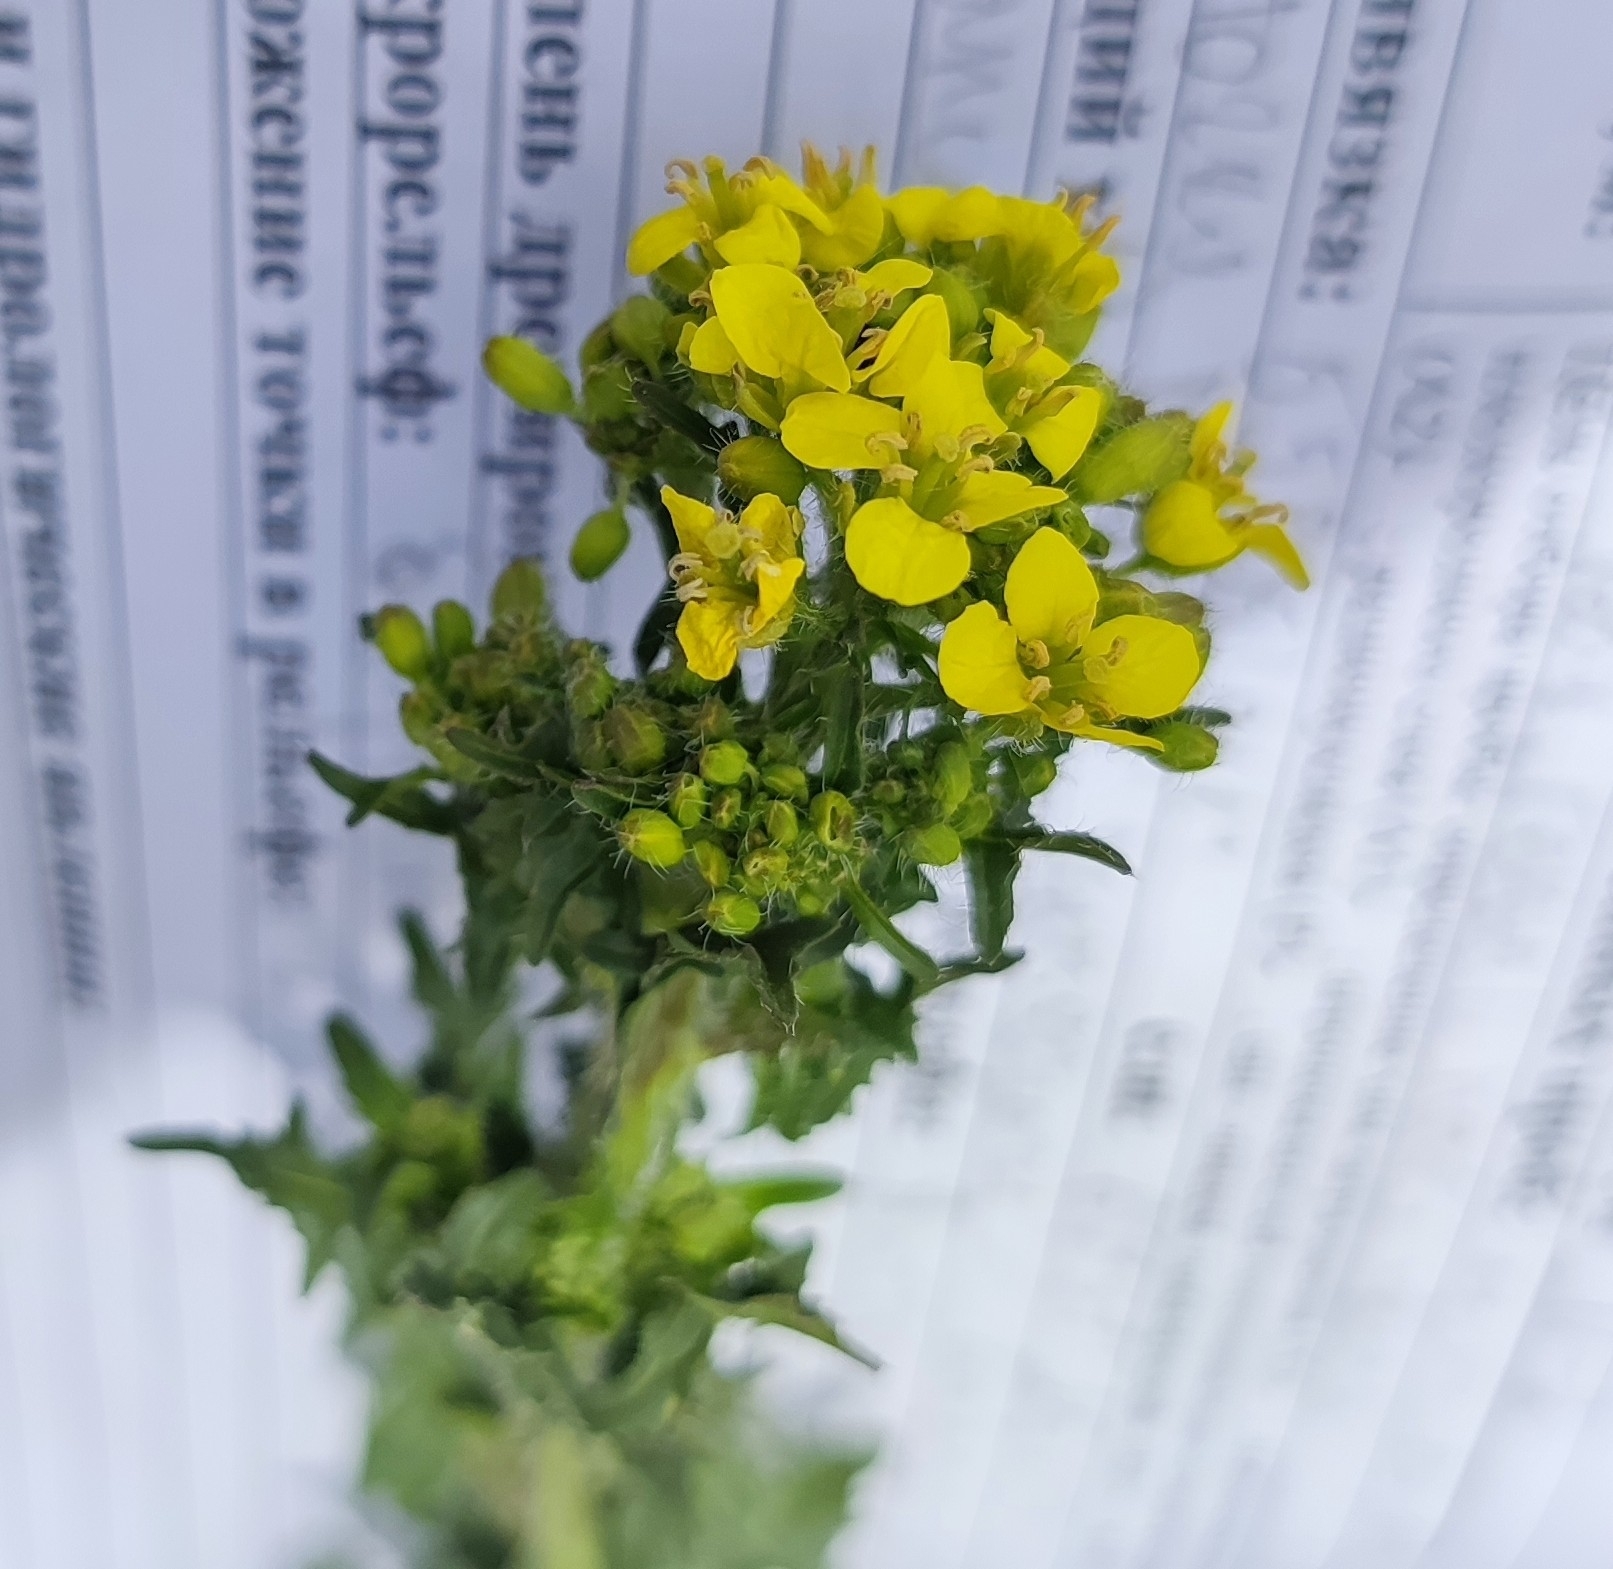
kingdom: Plantae
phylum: Tracheophyta
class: Magnoliopsida
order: Brassicales
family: Brassicaceae
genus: Sisymbrium
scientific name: Sisymbrium loeselii
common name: False london-rocket
